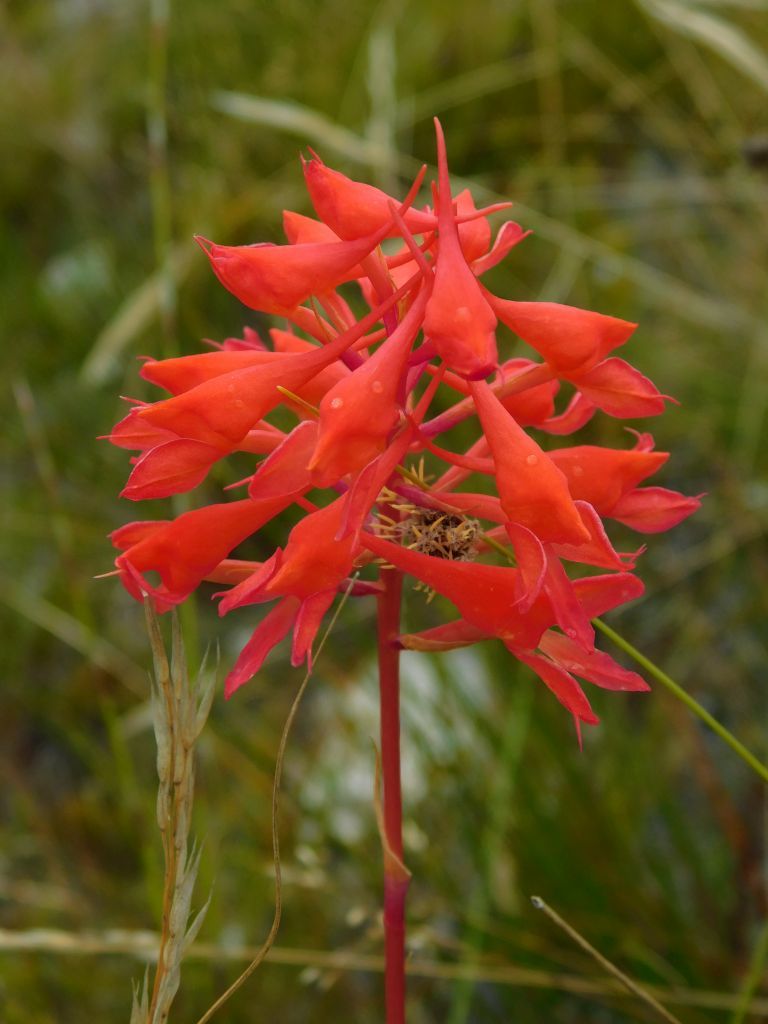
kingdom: Plantae
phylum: Tracheophyta
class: Liliopsida
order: Asparagales
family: Orchidaceae
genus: Disa
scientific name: Disa ferruginea
